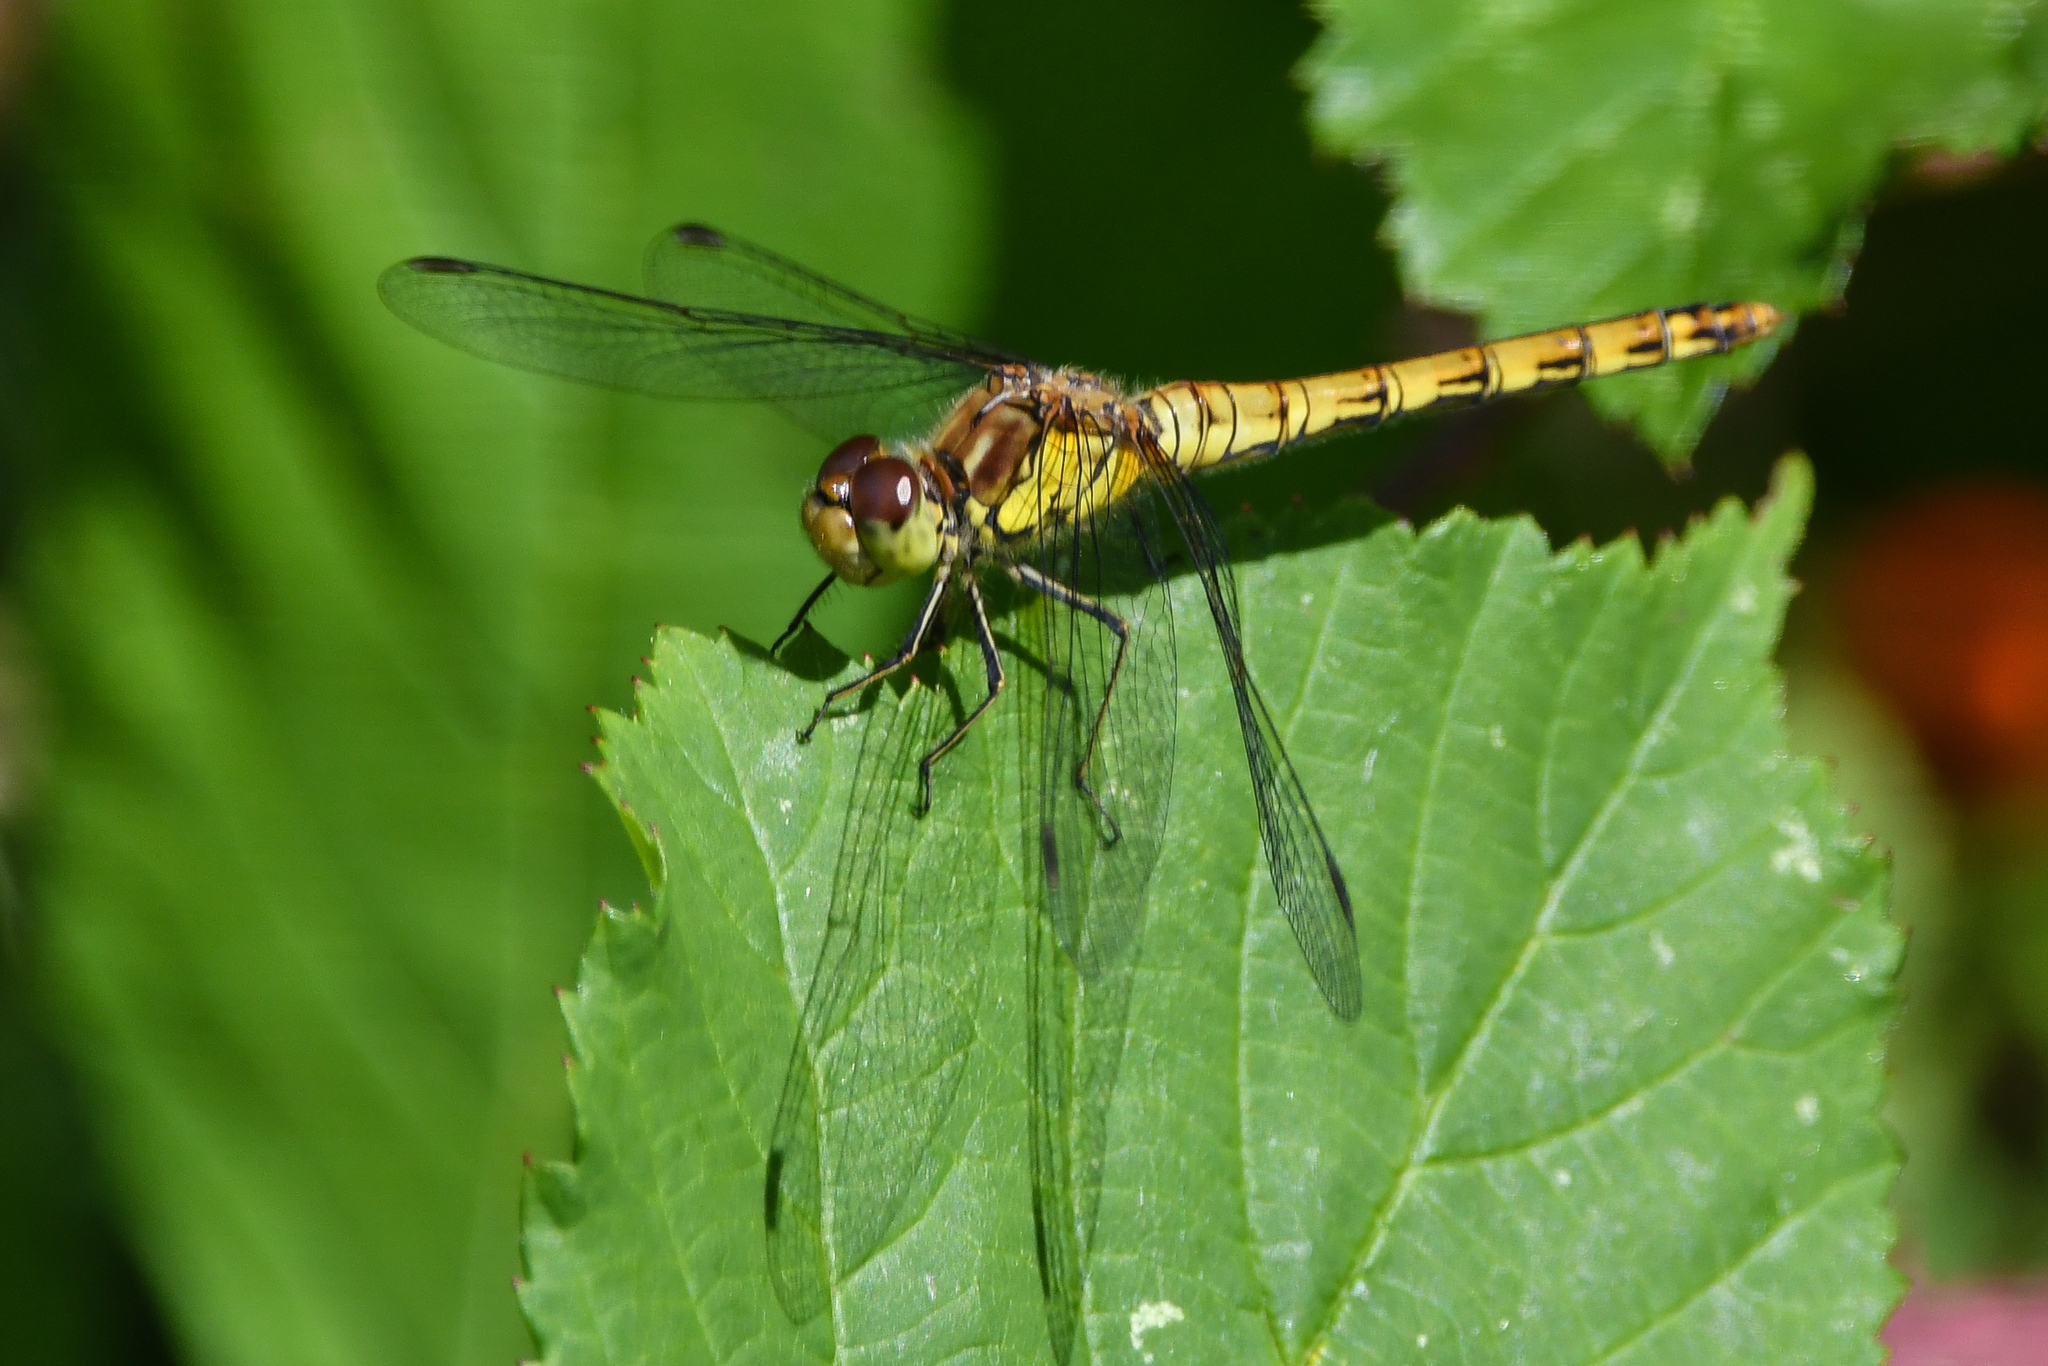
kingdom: Animalia
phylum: Arthropoda
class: Insecta
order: Odonata
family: Libellulidae
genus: Sympetrum
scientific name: Sympetrum striolatum
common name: Common darter
